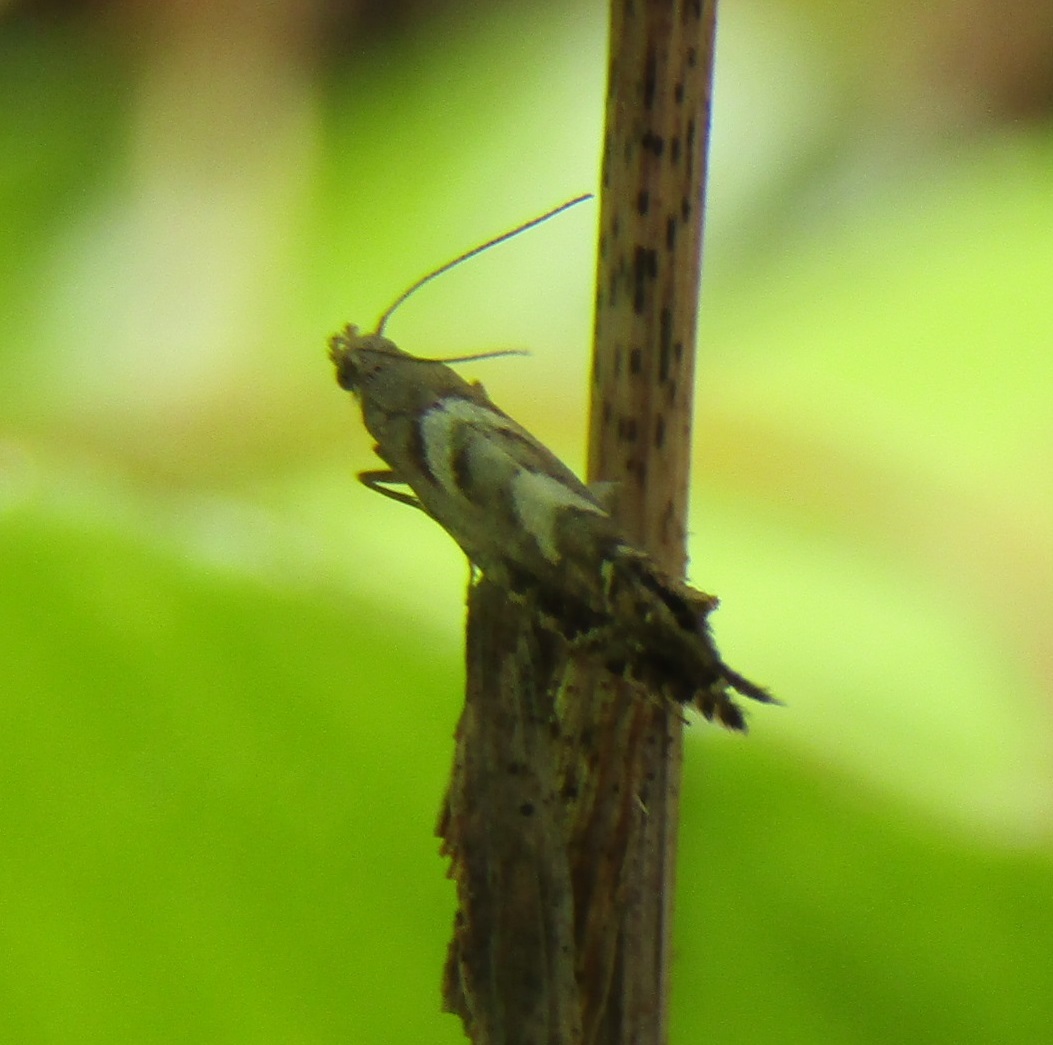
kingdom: Animalia
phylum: Arthropoda
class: Insecta
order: Lepidoptera
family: Glyphipterigidae
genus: Glyphipterix
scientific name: Glyphipterix asteronota
